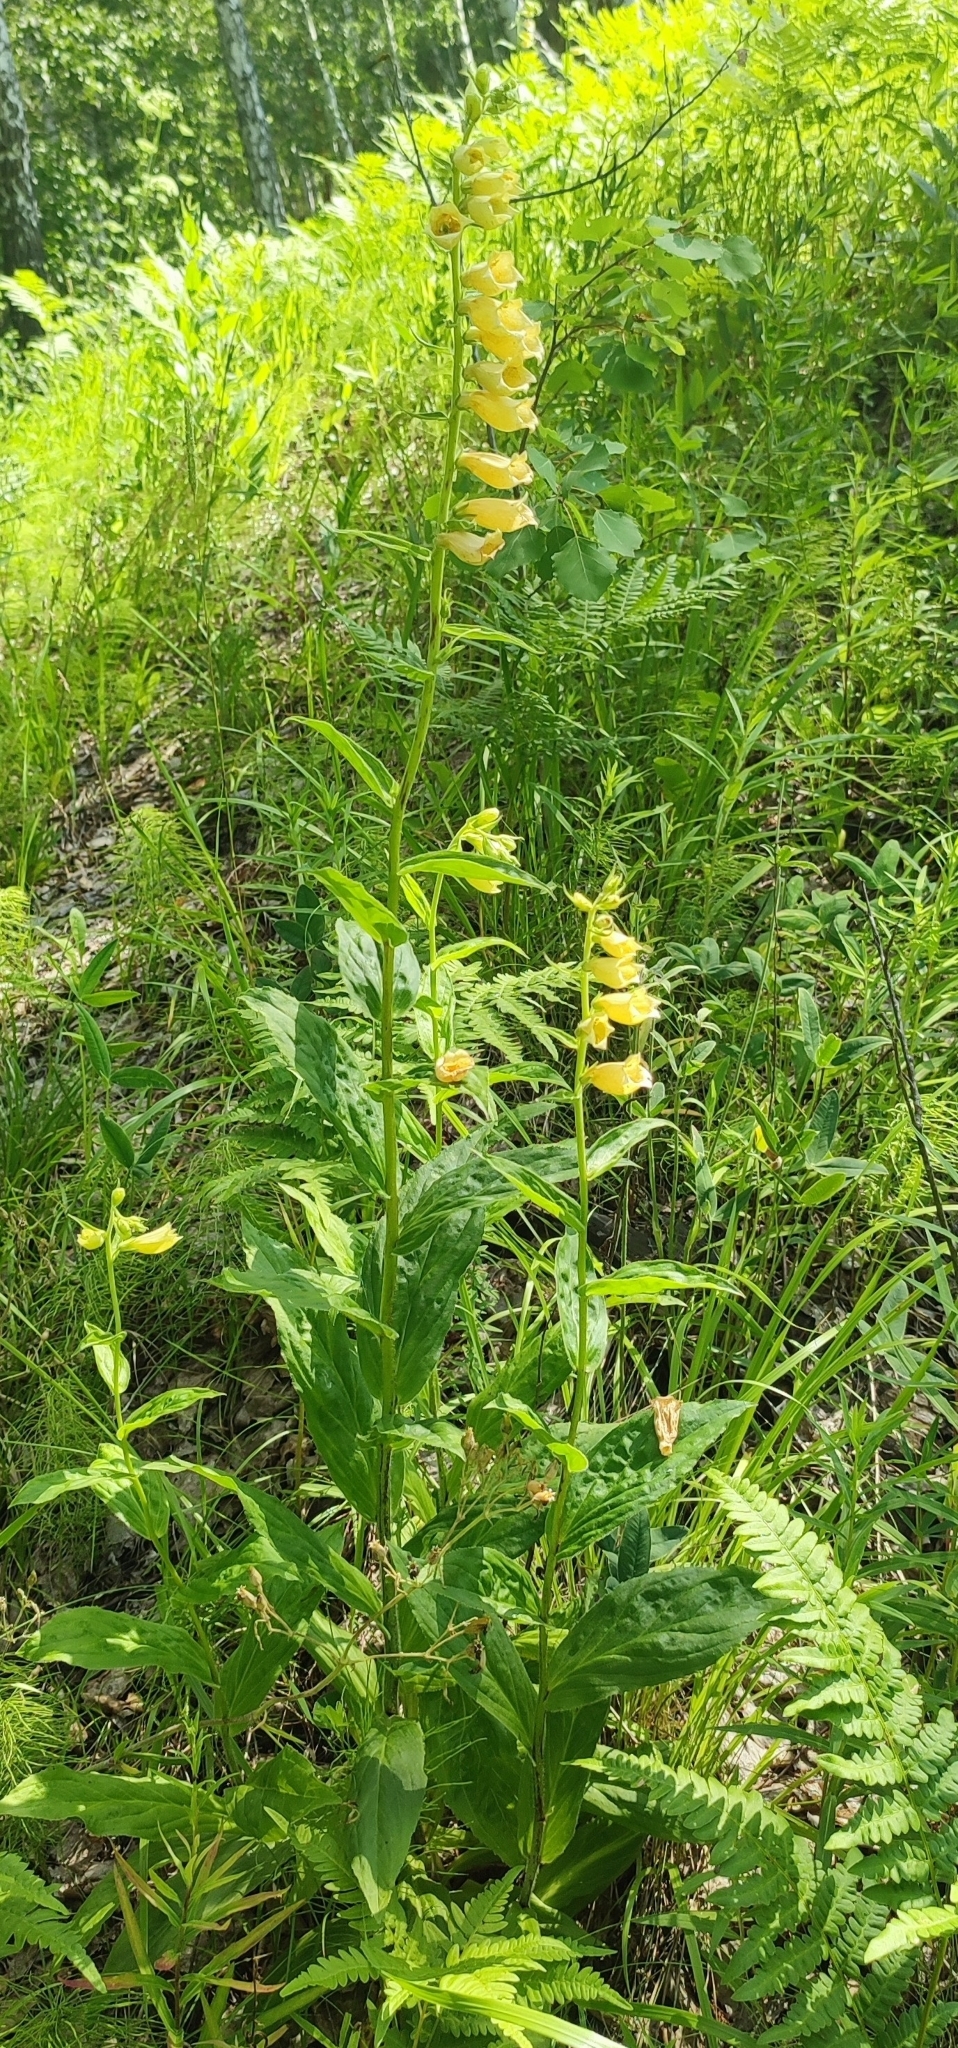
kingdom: Plantae
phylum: Tracheophyta
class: Magnoliopsida
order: Lamiales
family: Plantaginaceae
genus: Digitalis
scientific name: Digitalis grandiflora
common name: Yellow foxglove
